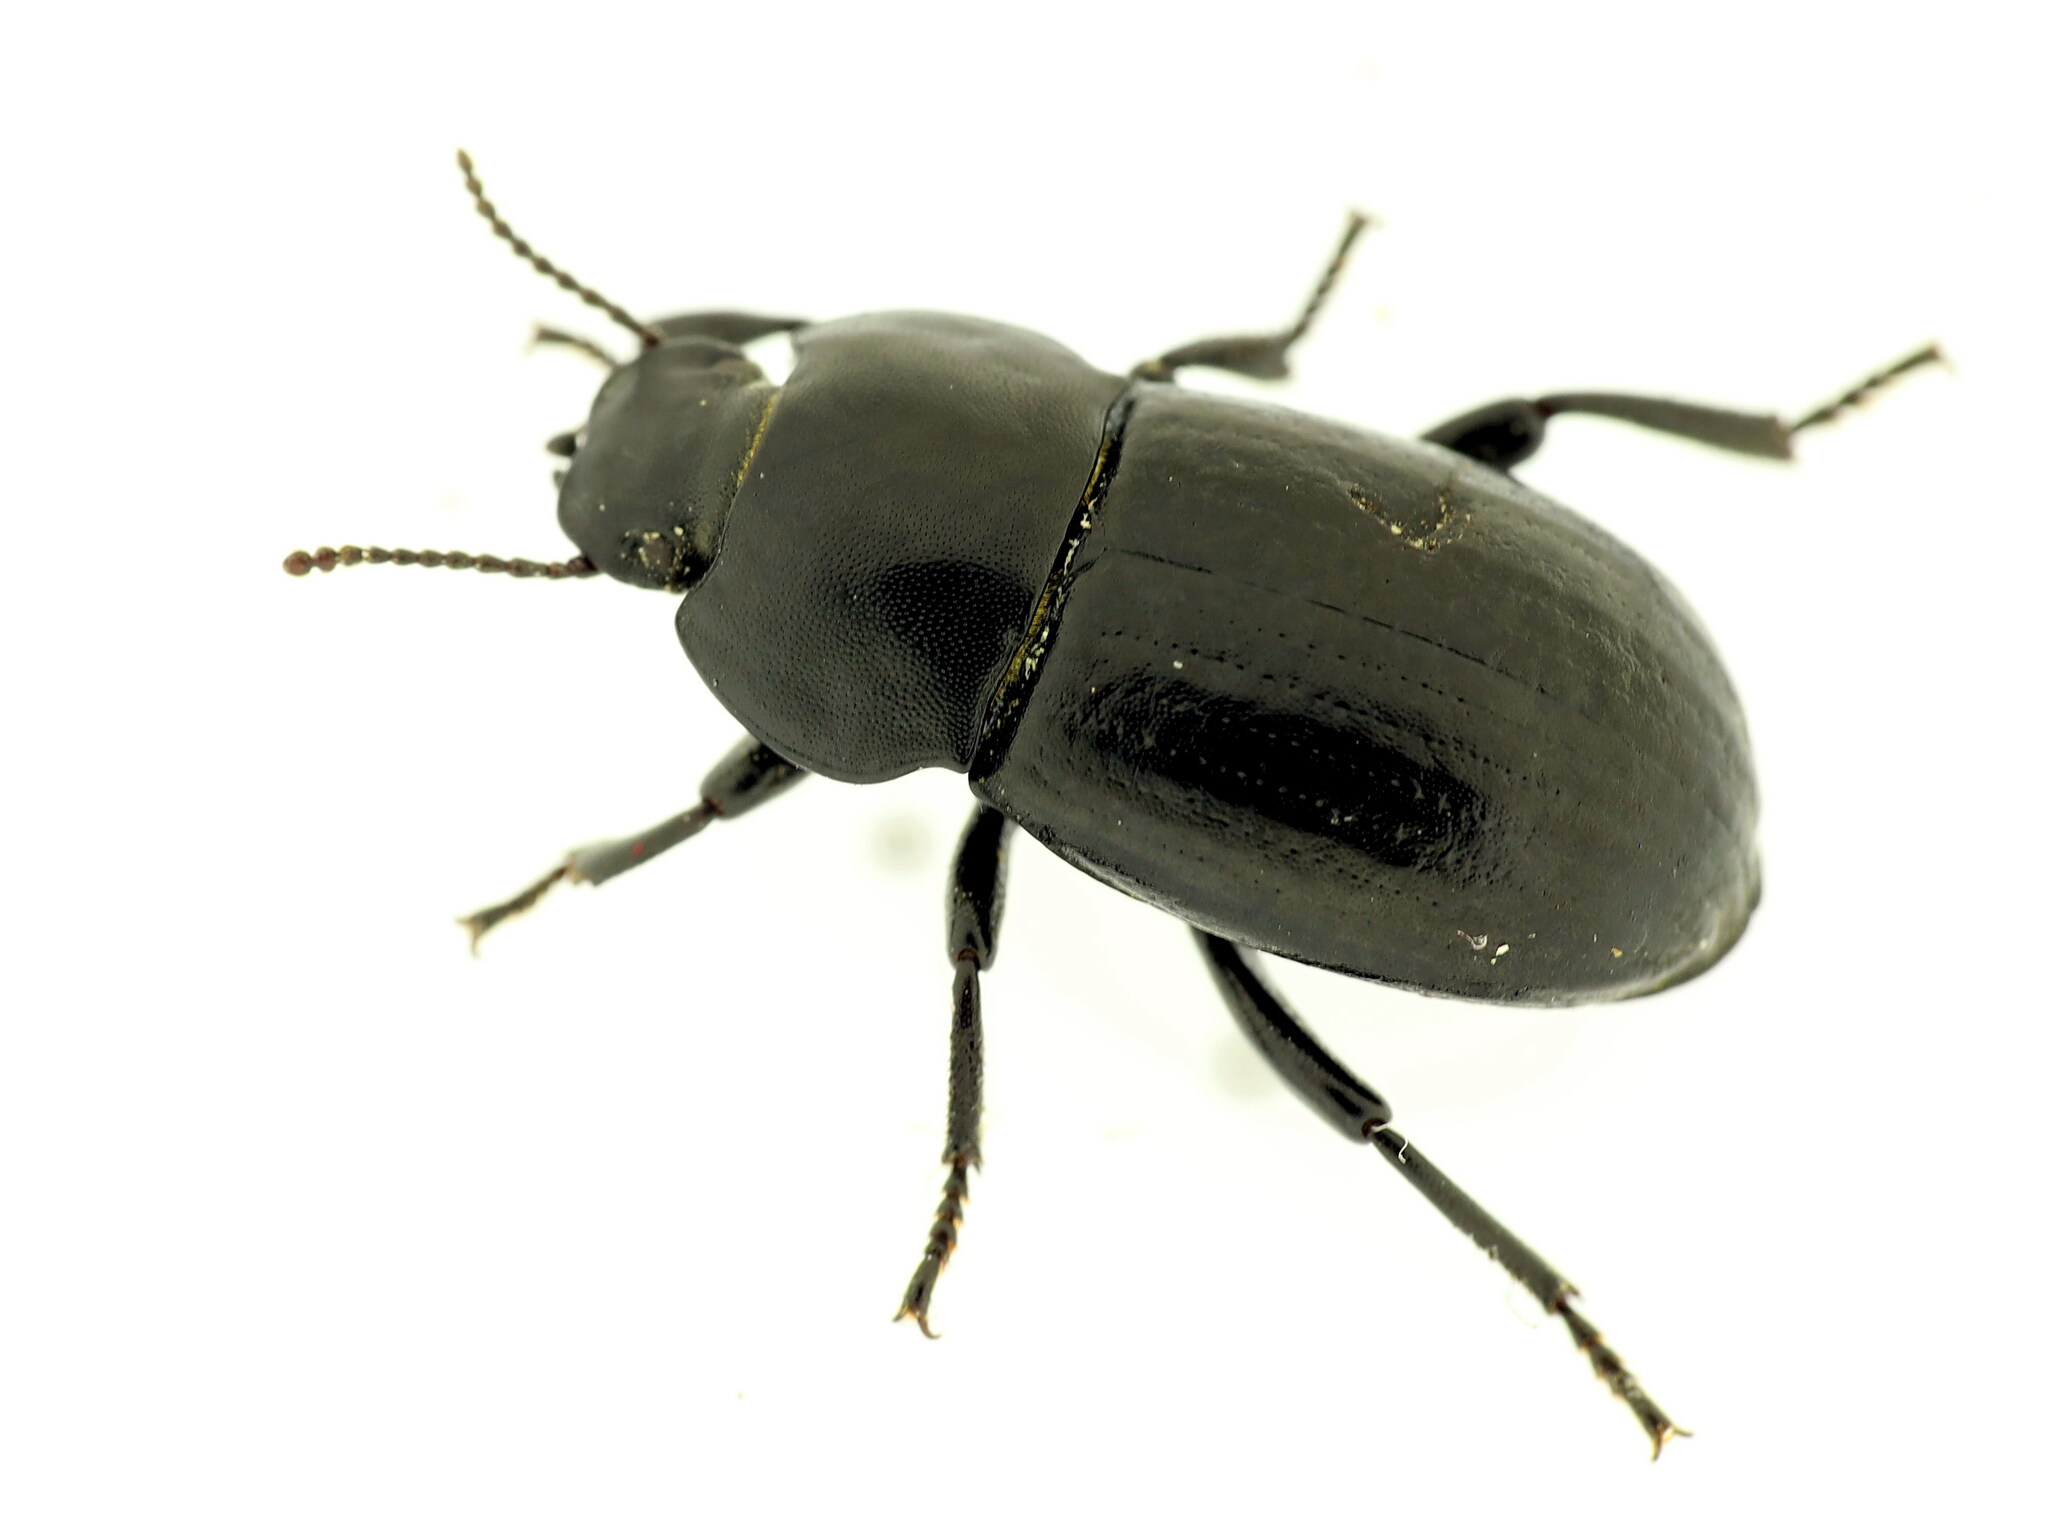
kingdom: Animalia
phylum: Arthropoda
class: Insecta
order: Coleoptera
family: Tenebrionidae
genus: Phylan
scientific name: Phylan abbreviatus
